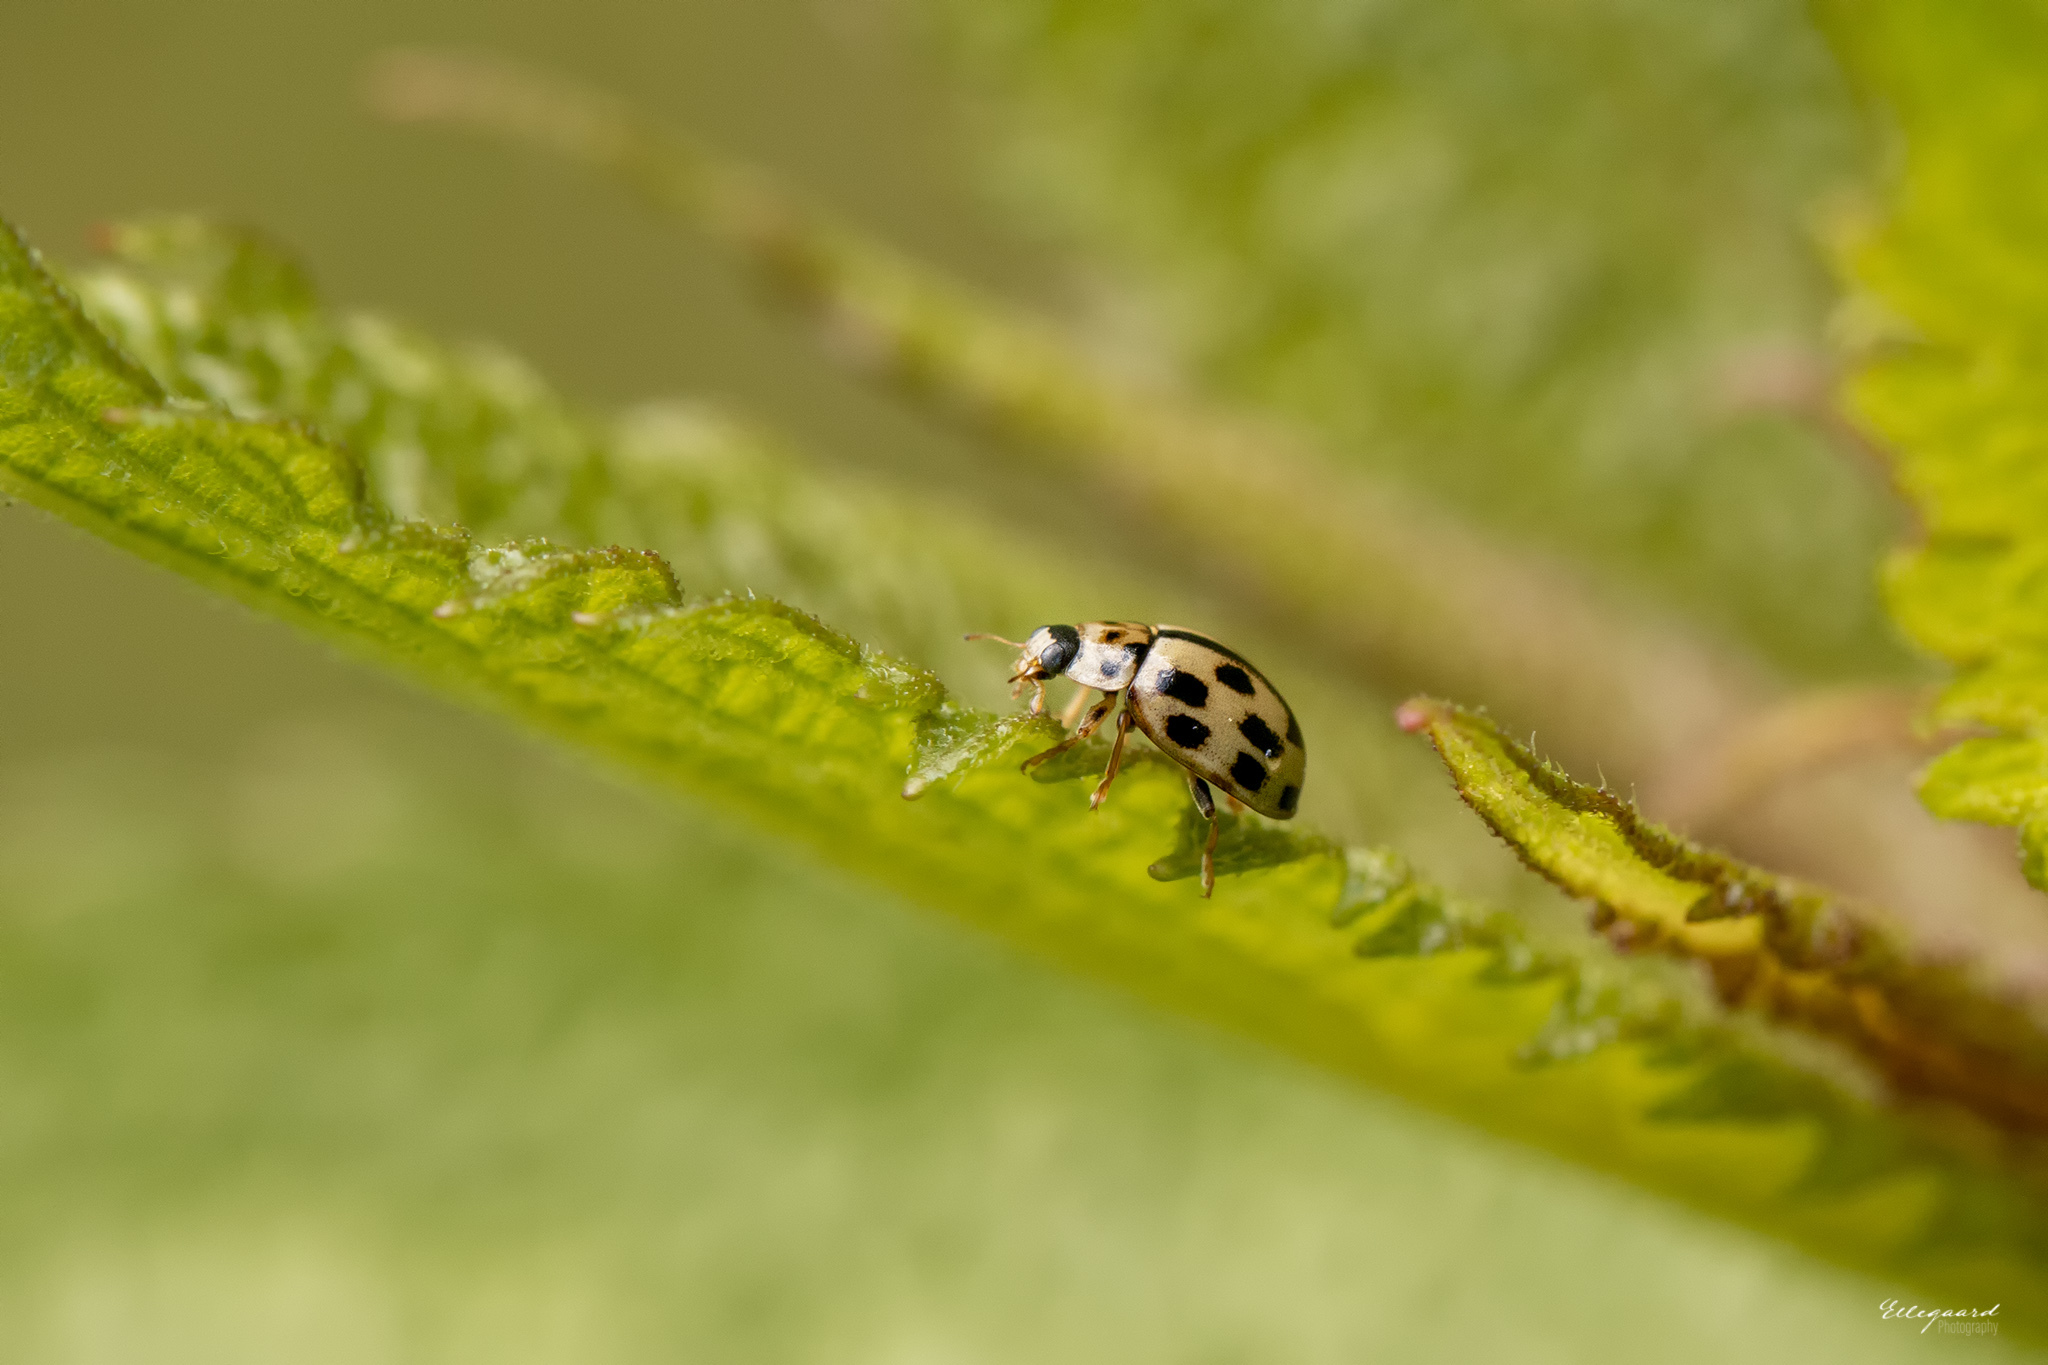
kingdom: Animalia
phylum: Arthropoda
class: Insecta
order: Coleoptera
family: Coccinellidae
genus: Propylaea
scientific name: Propylaea quatuordecimpunctata
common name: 14-spotted ladybird beetle
